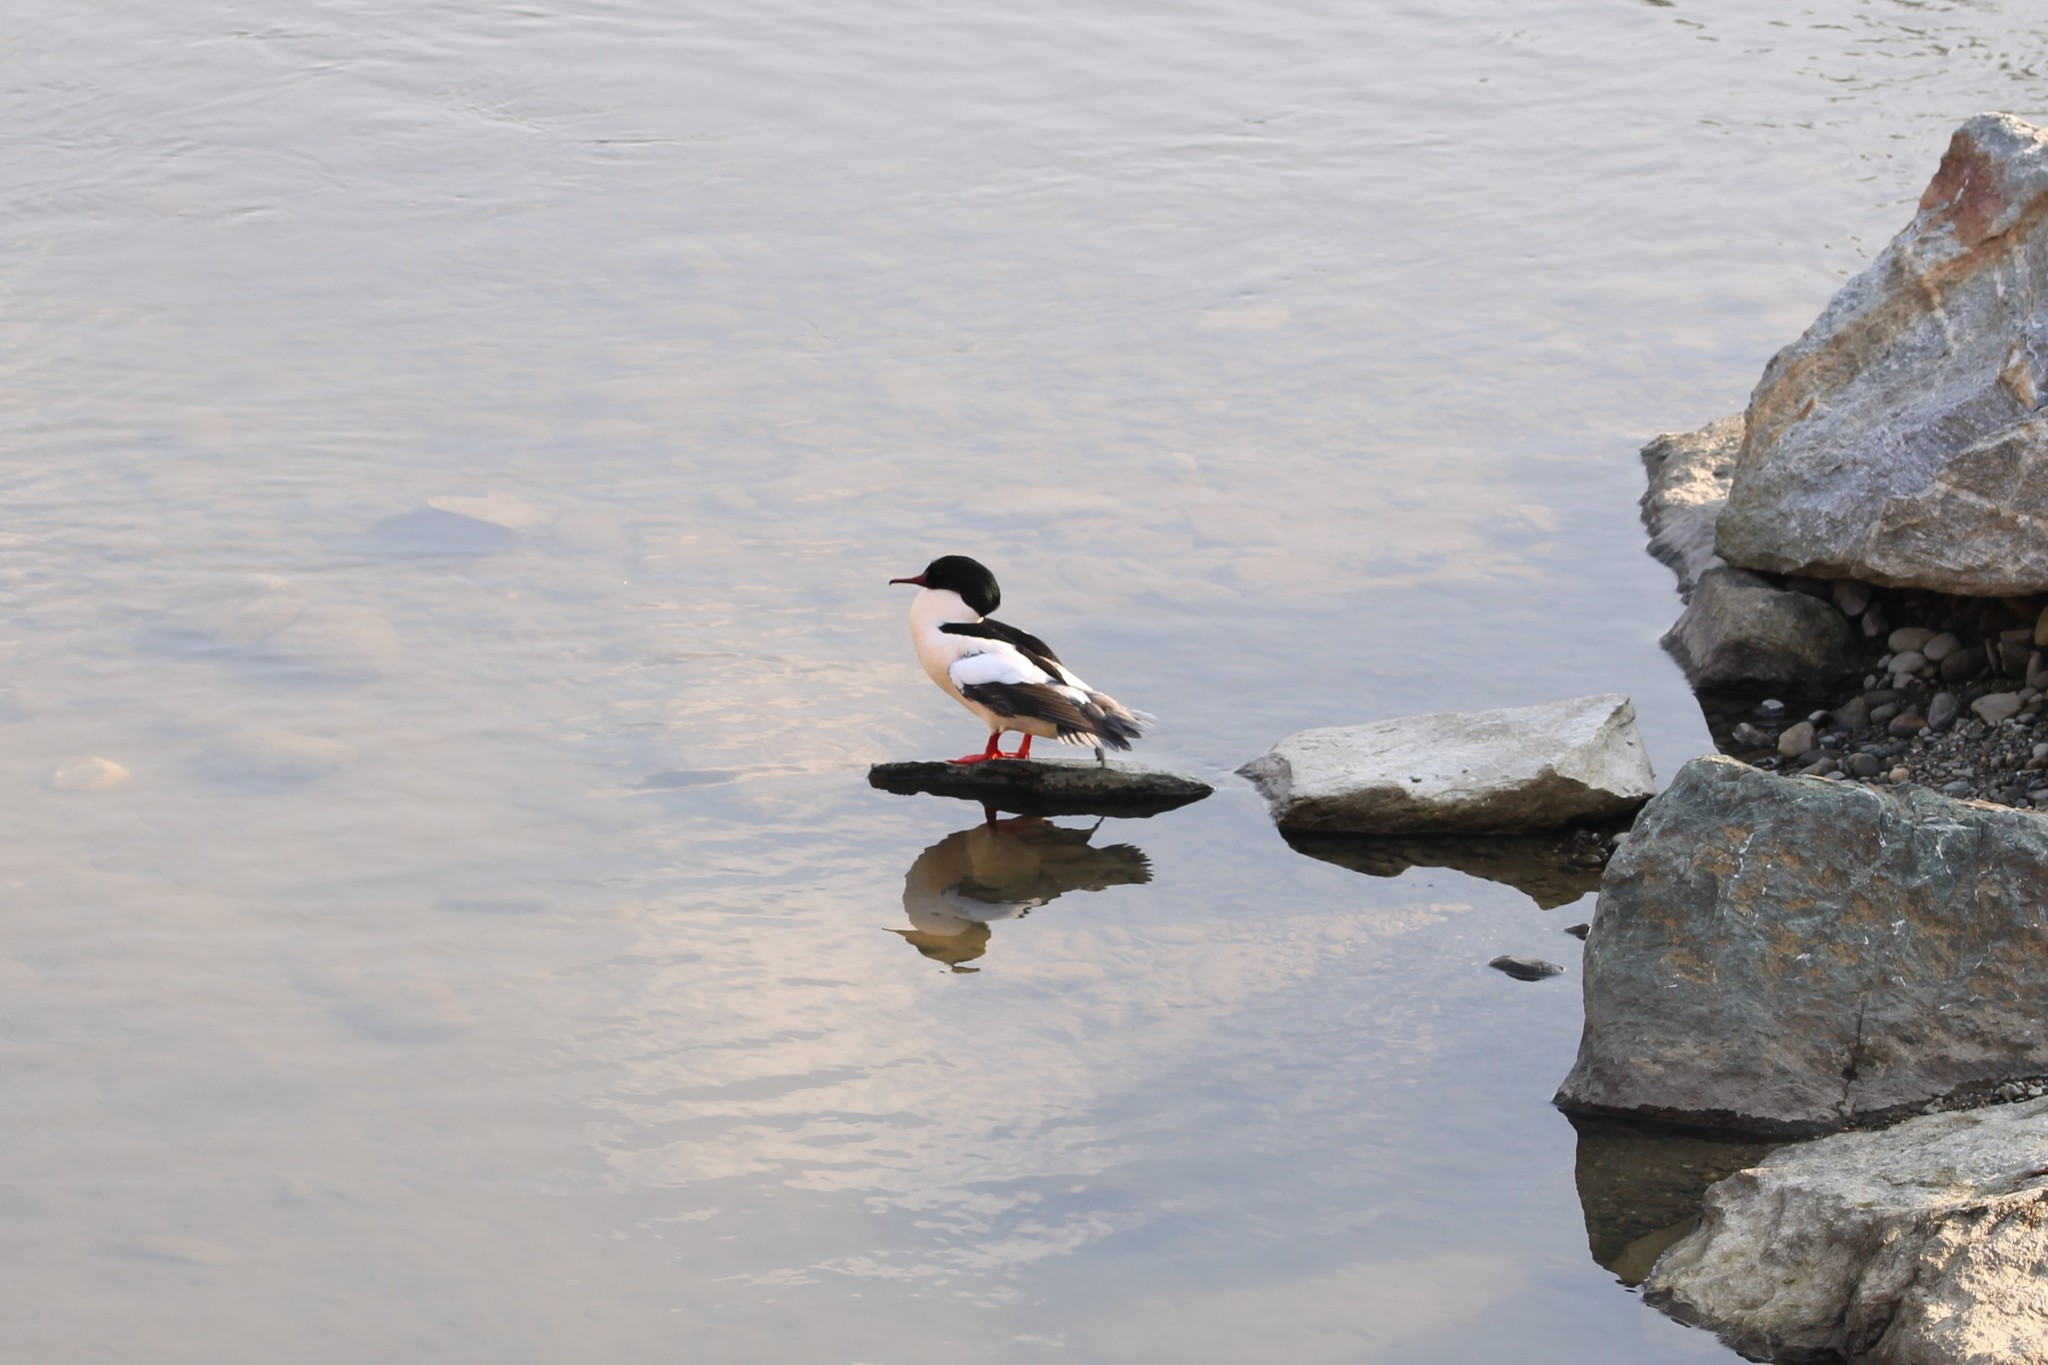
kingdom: Animalia
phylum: Chordata
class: Aves
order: Anseriformes
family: Anatidae
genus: Mergus
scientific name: Mergus merganser
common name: Common merganser
